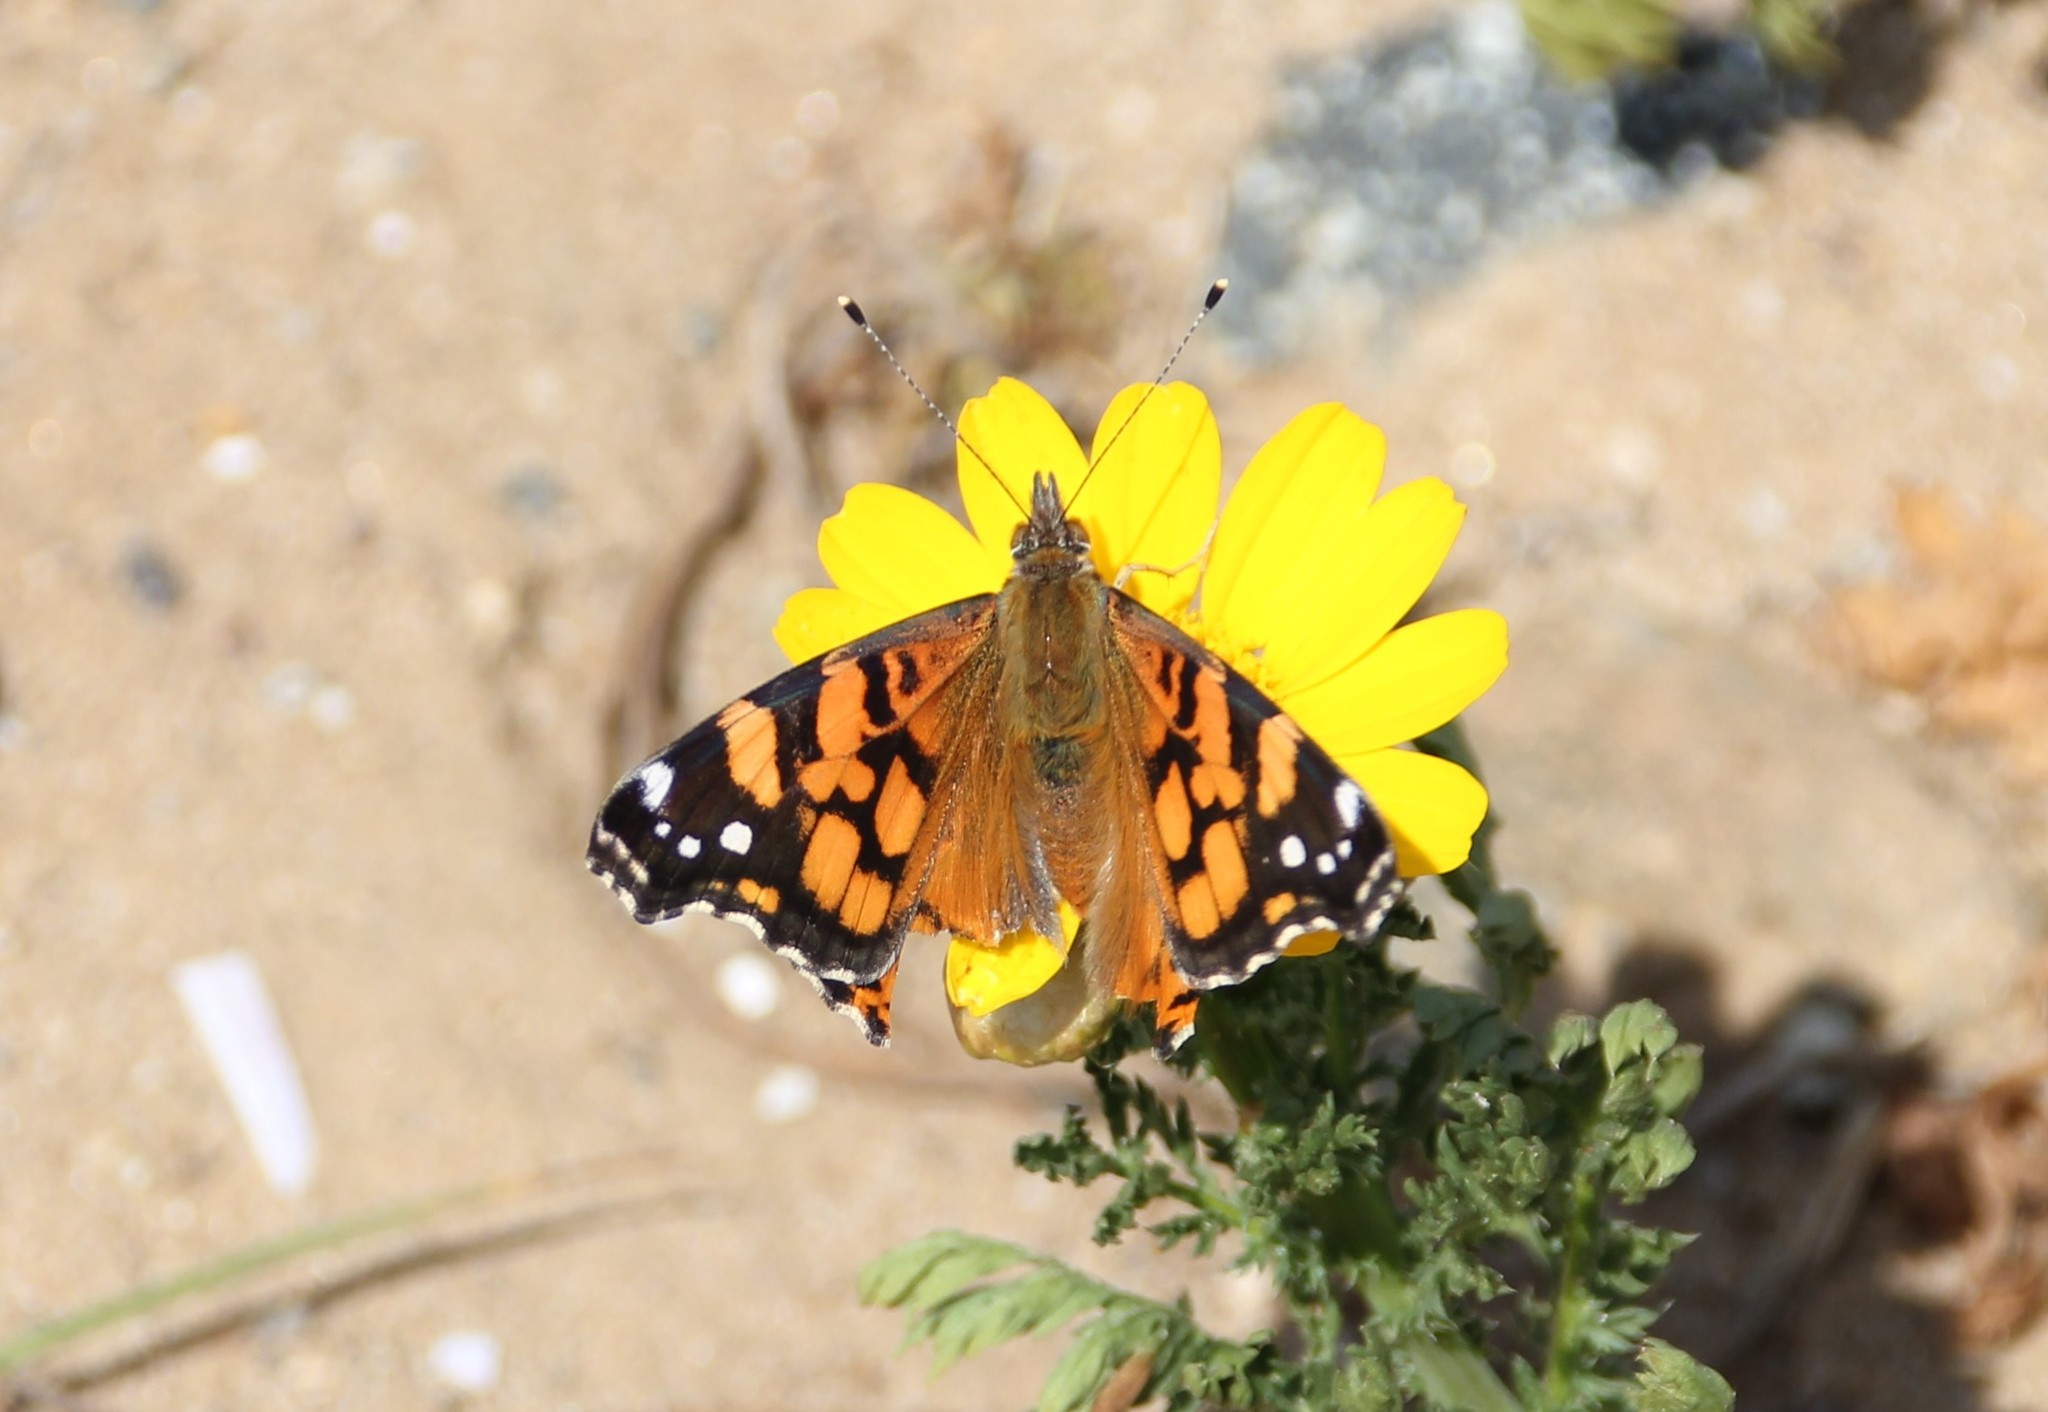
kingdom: Animalia
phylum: Arthropoda
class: Insecta
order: Lepidoptera
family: Nymphalidae
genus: Vanessa
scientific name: Vanessa annabella
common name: West coast lady
